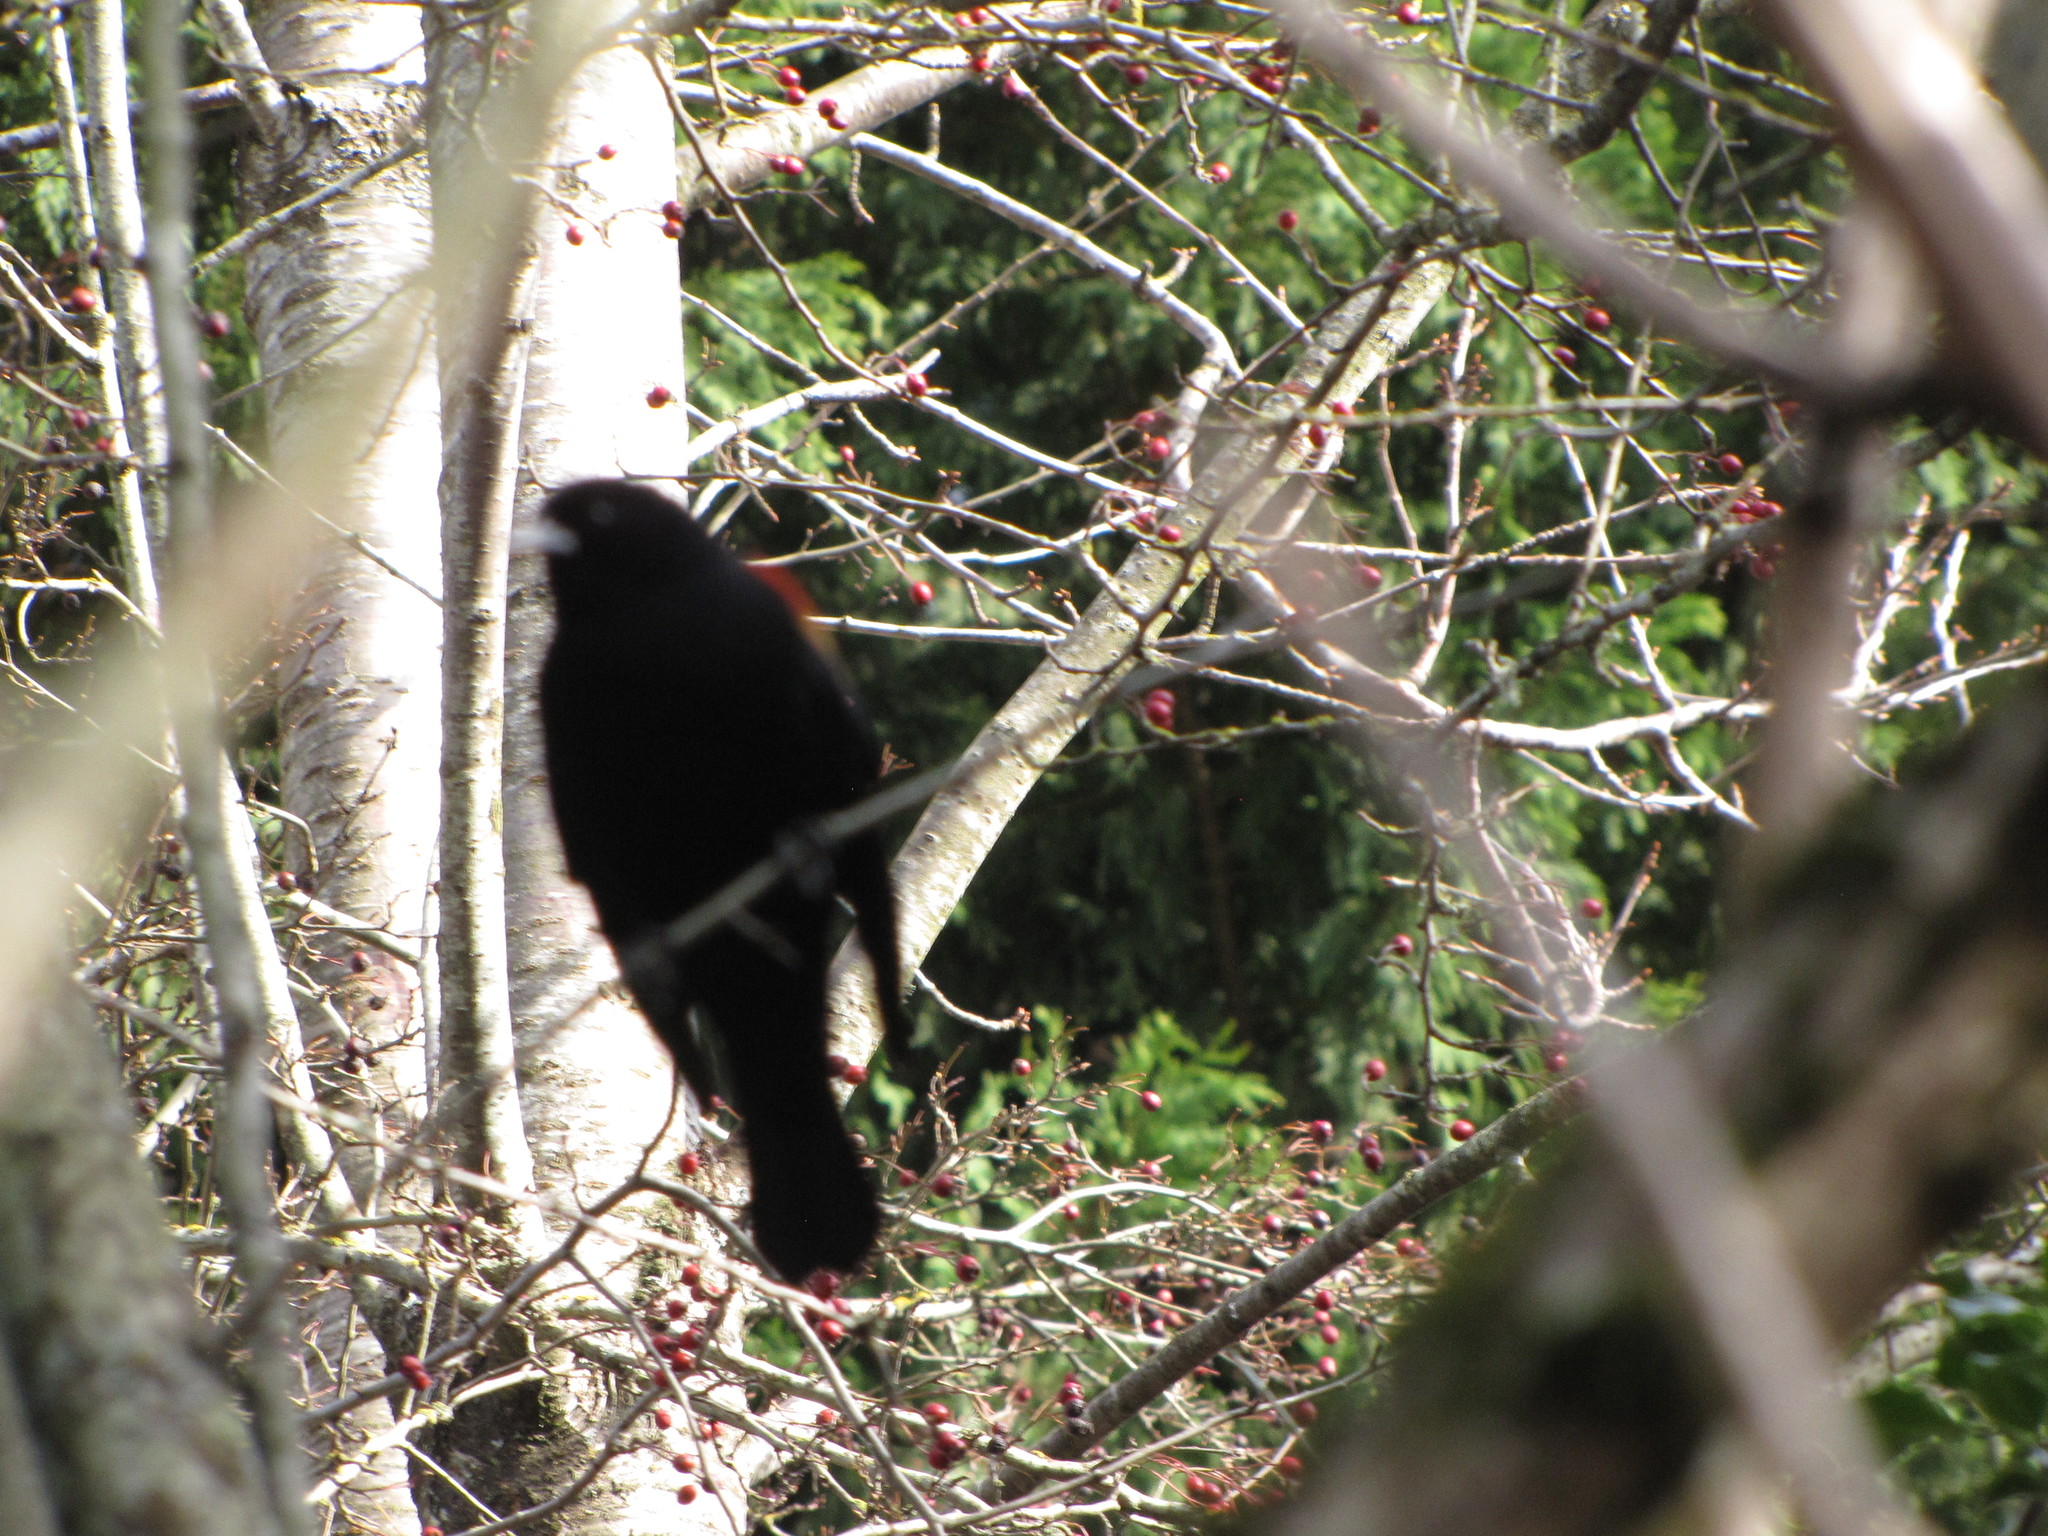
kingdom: Animalia
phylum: Chordata
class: Aves
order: Passeriformes
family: Icteridae
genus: Agelaius
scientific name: Agelaius phoeniceus
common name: Red-winged blackbird
